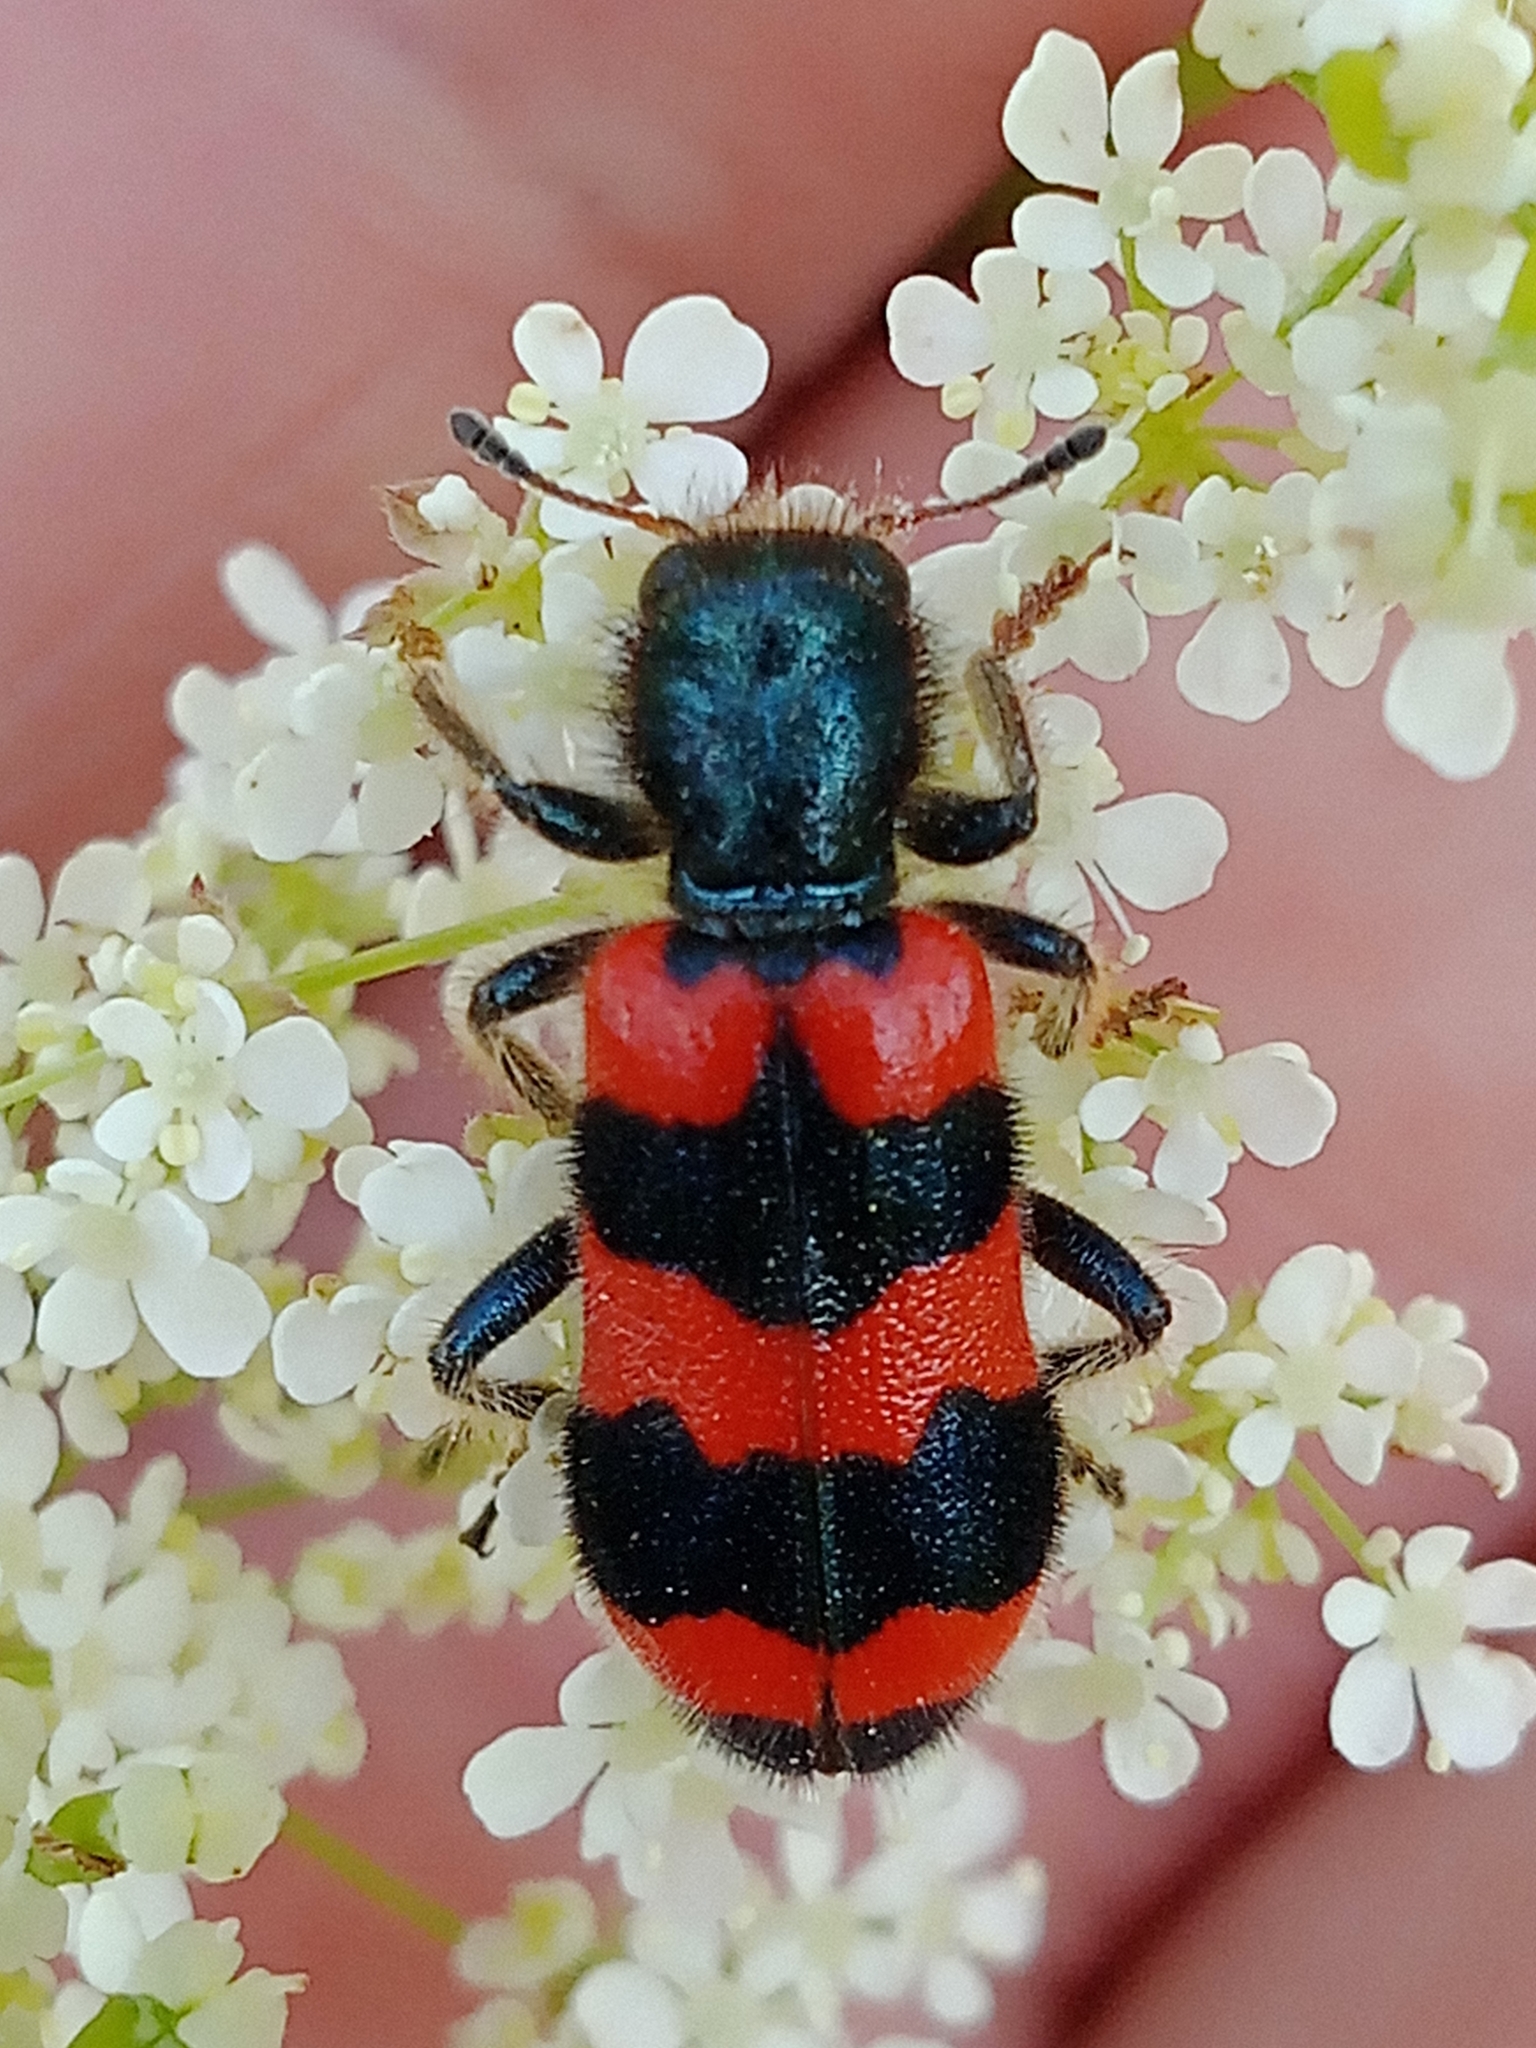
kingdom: Animalia
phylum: Arthropoda
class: Insecta
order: Coleoptera
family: Cleridae
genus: Trichodes
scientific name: Trichodes apiarius
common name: Bee-eating beetle
